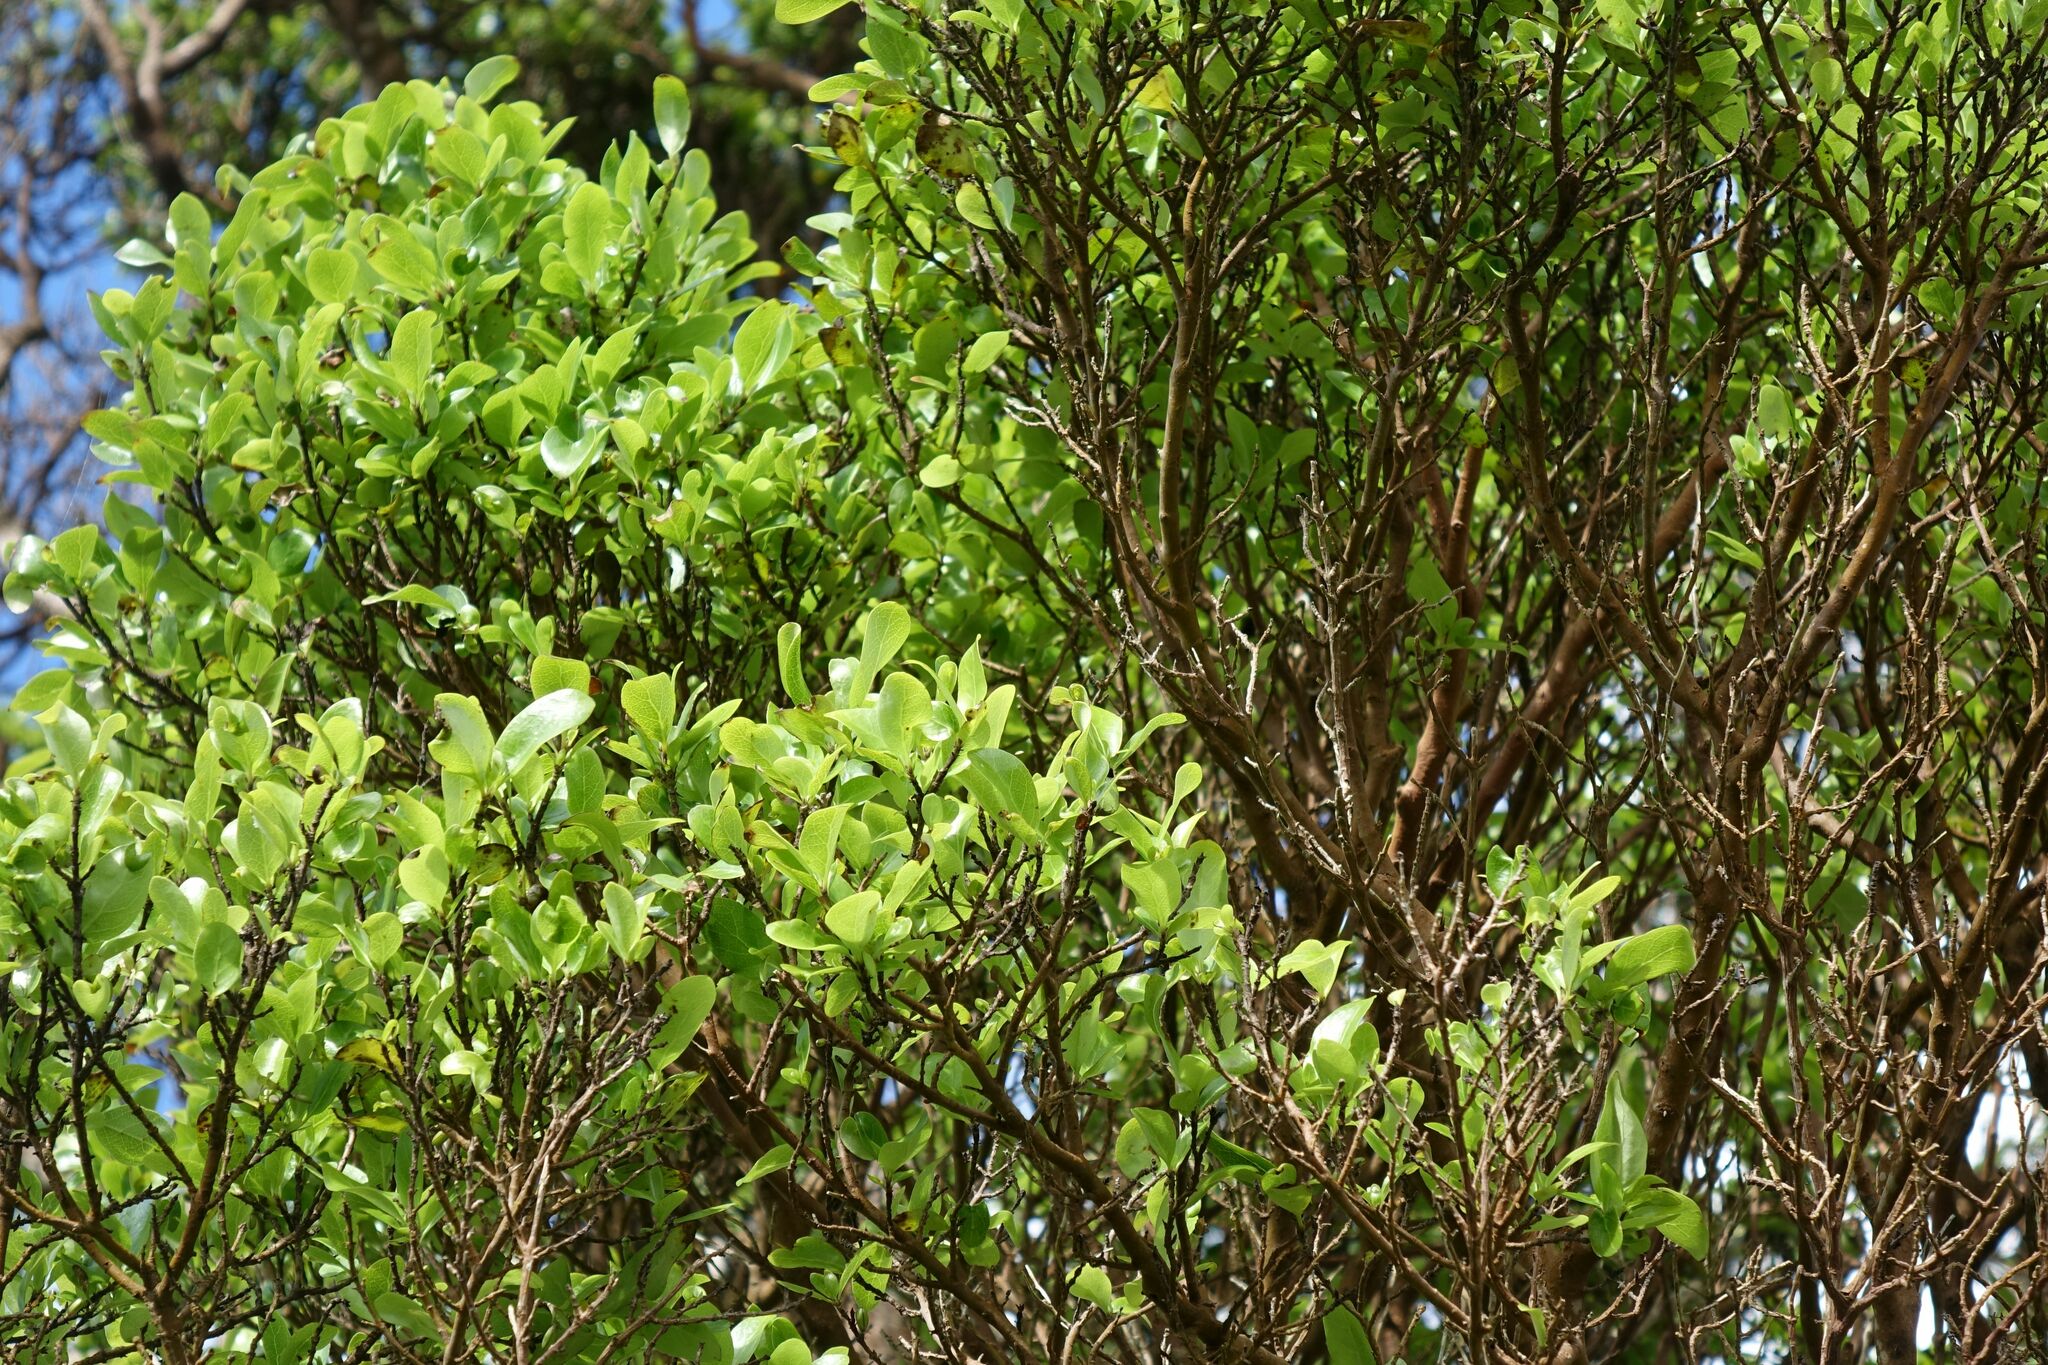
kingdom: Plantae
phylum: Tracheophyta
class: Magnoliopsida
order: Gentianales
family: Rubiaceae
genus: Coprosma
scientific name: Coprosma chathamica
